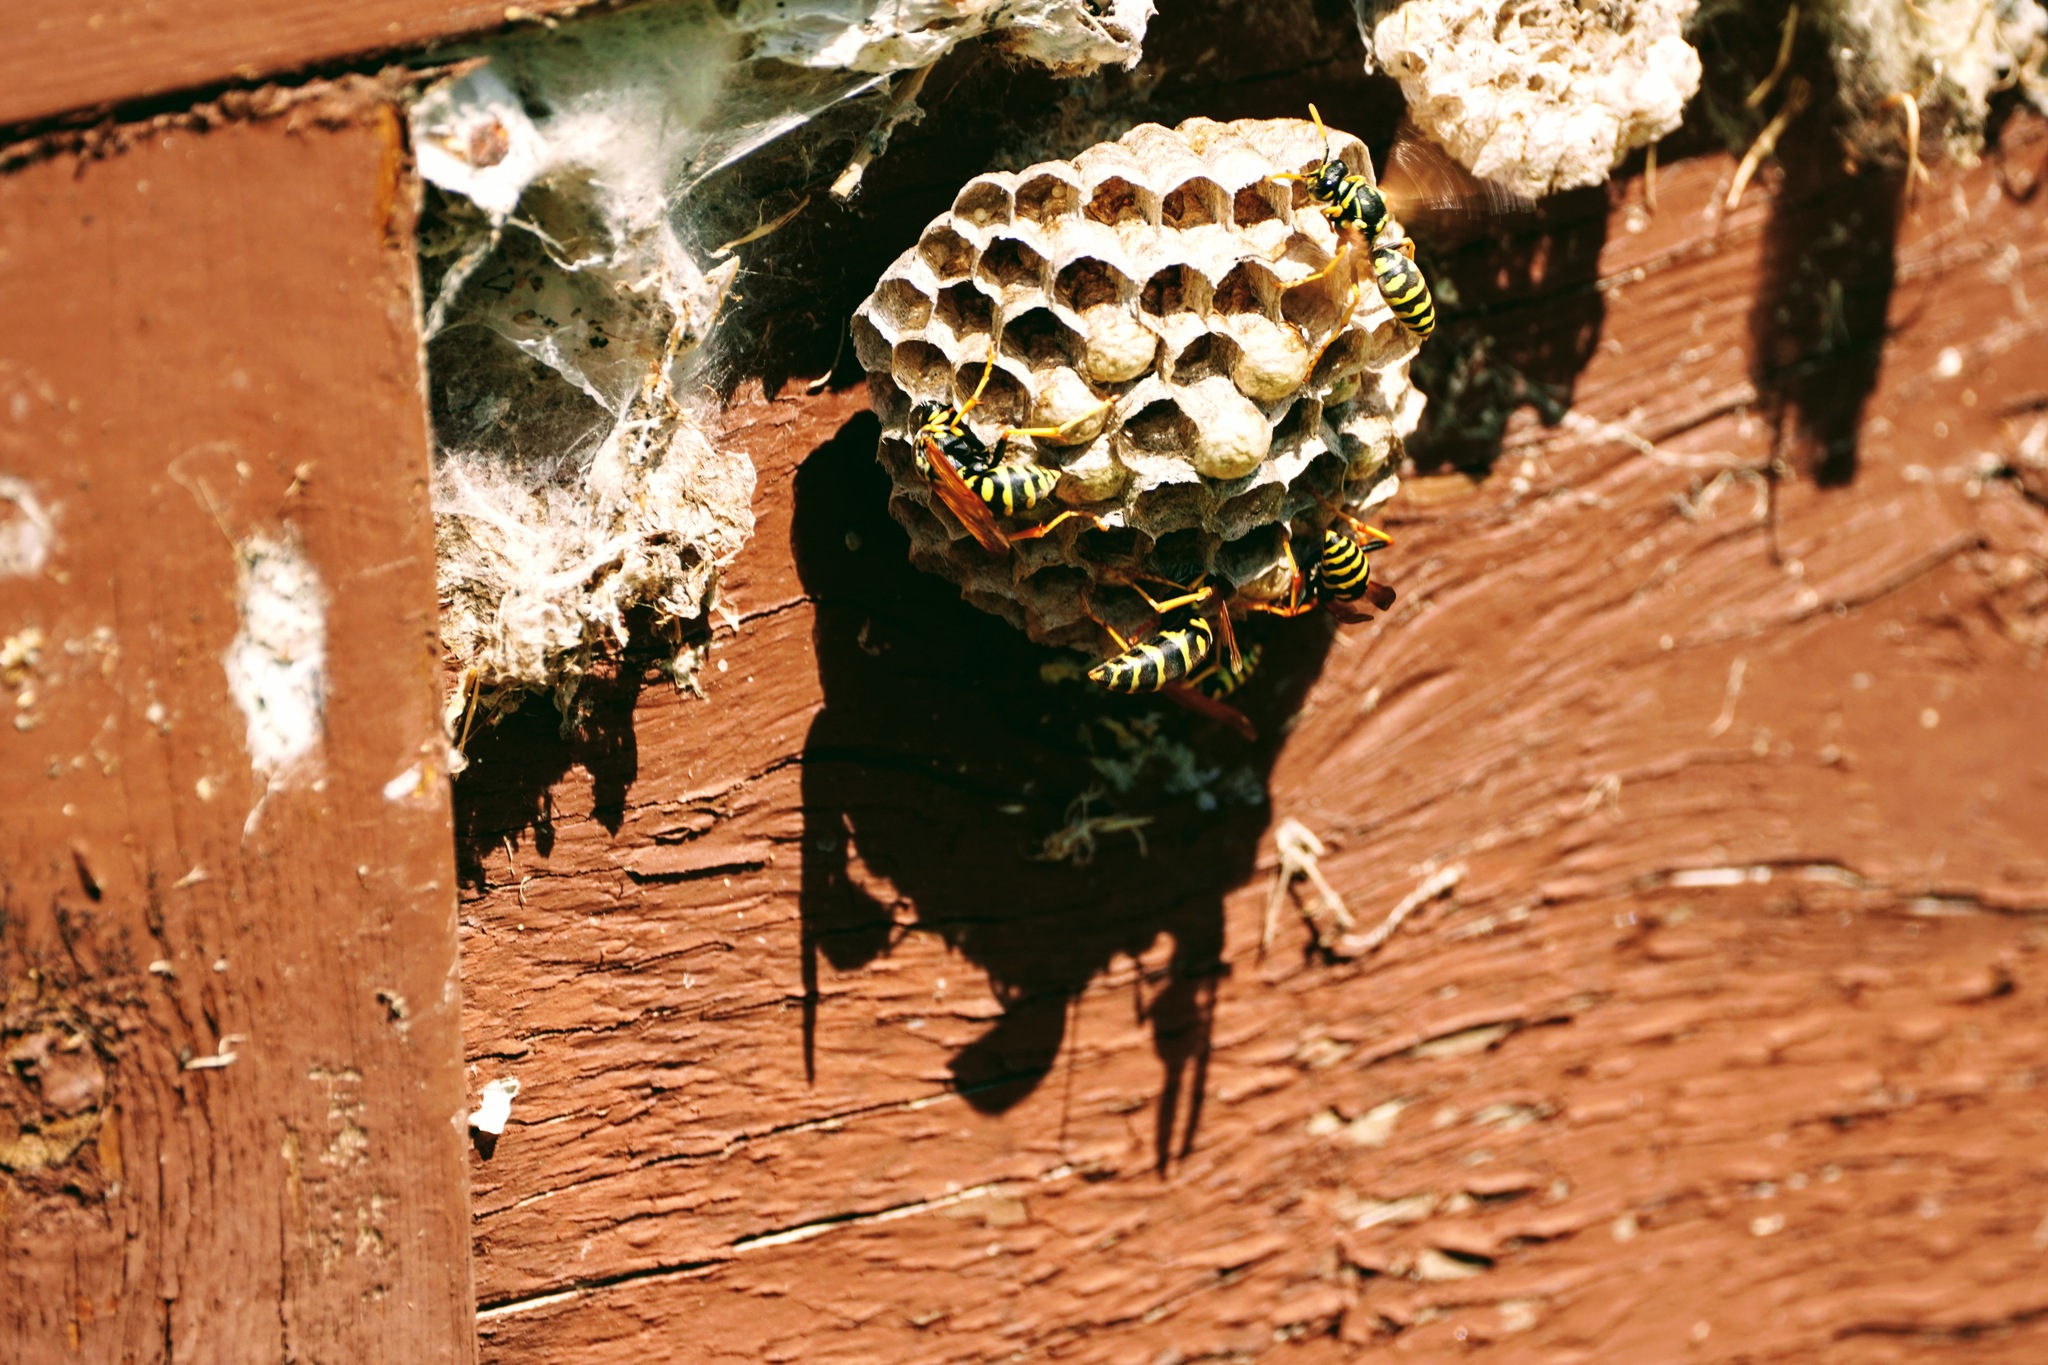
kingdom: Animalia
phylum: Arthropoda
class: Insecta
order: Hymenoptera
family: Eumenidae
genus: Polistes
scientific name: Polistes dominula
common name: Paper wasp
